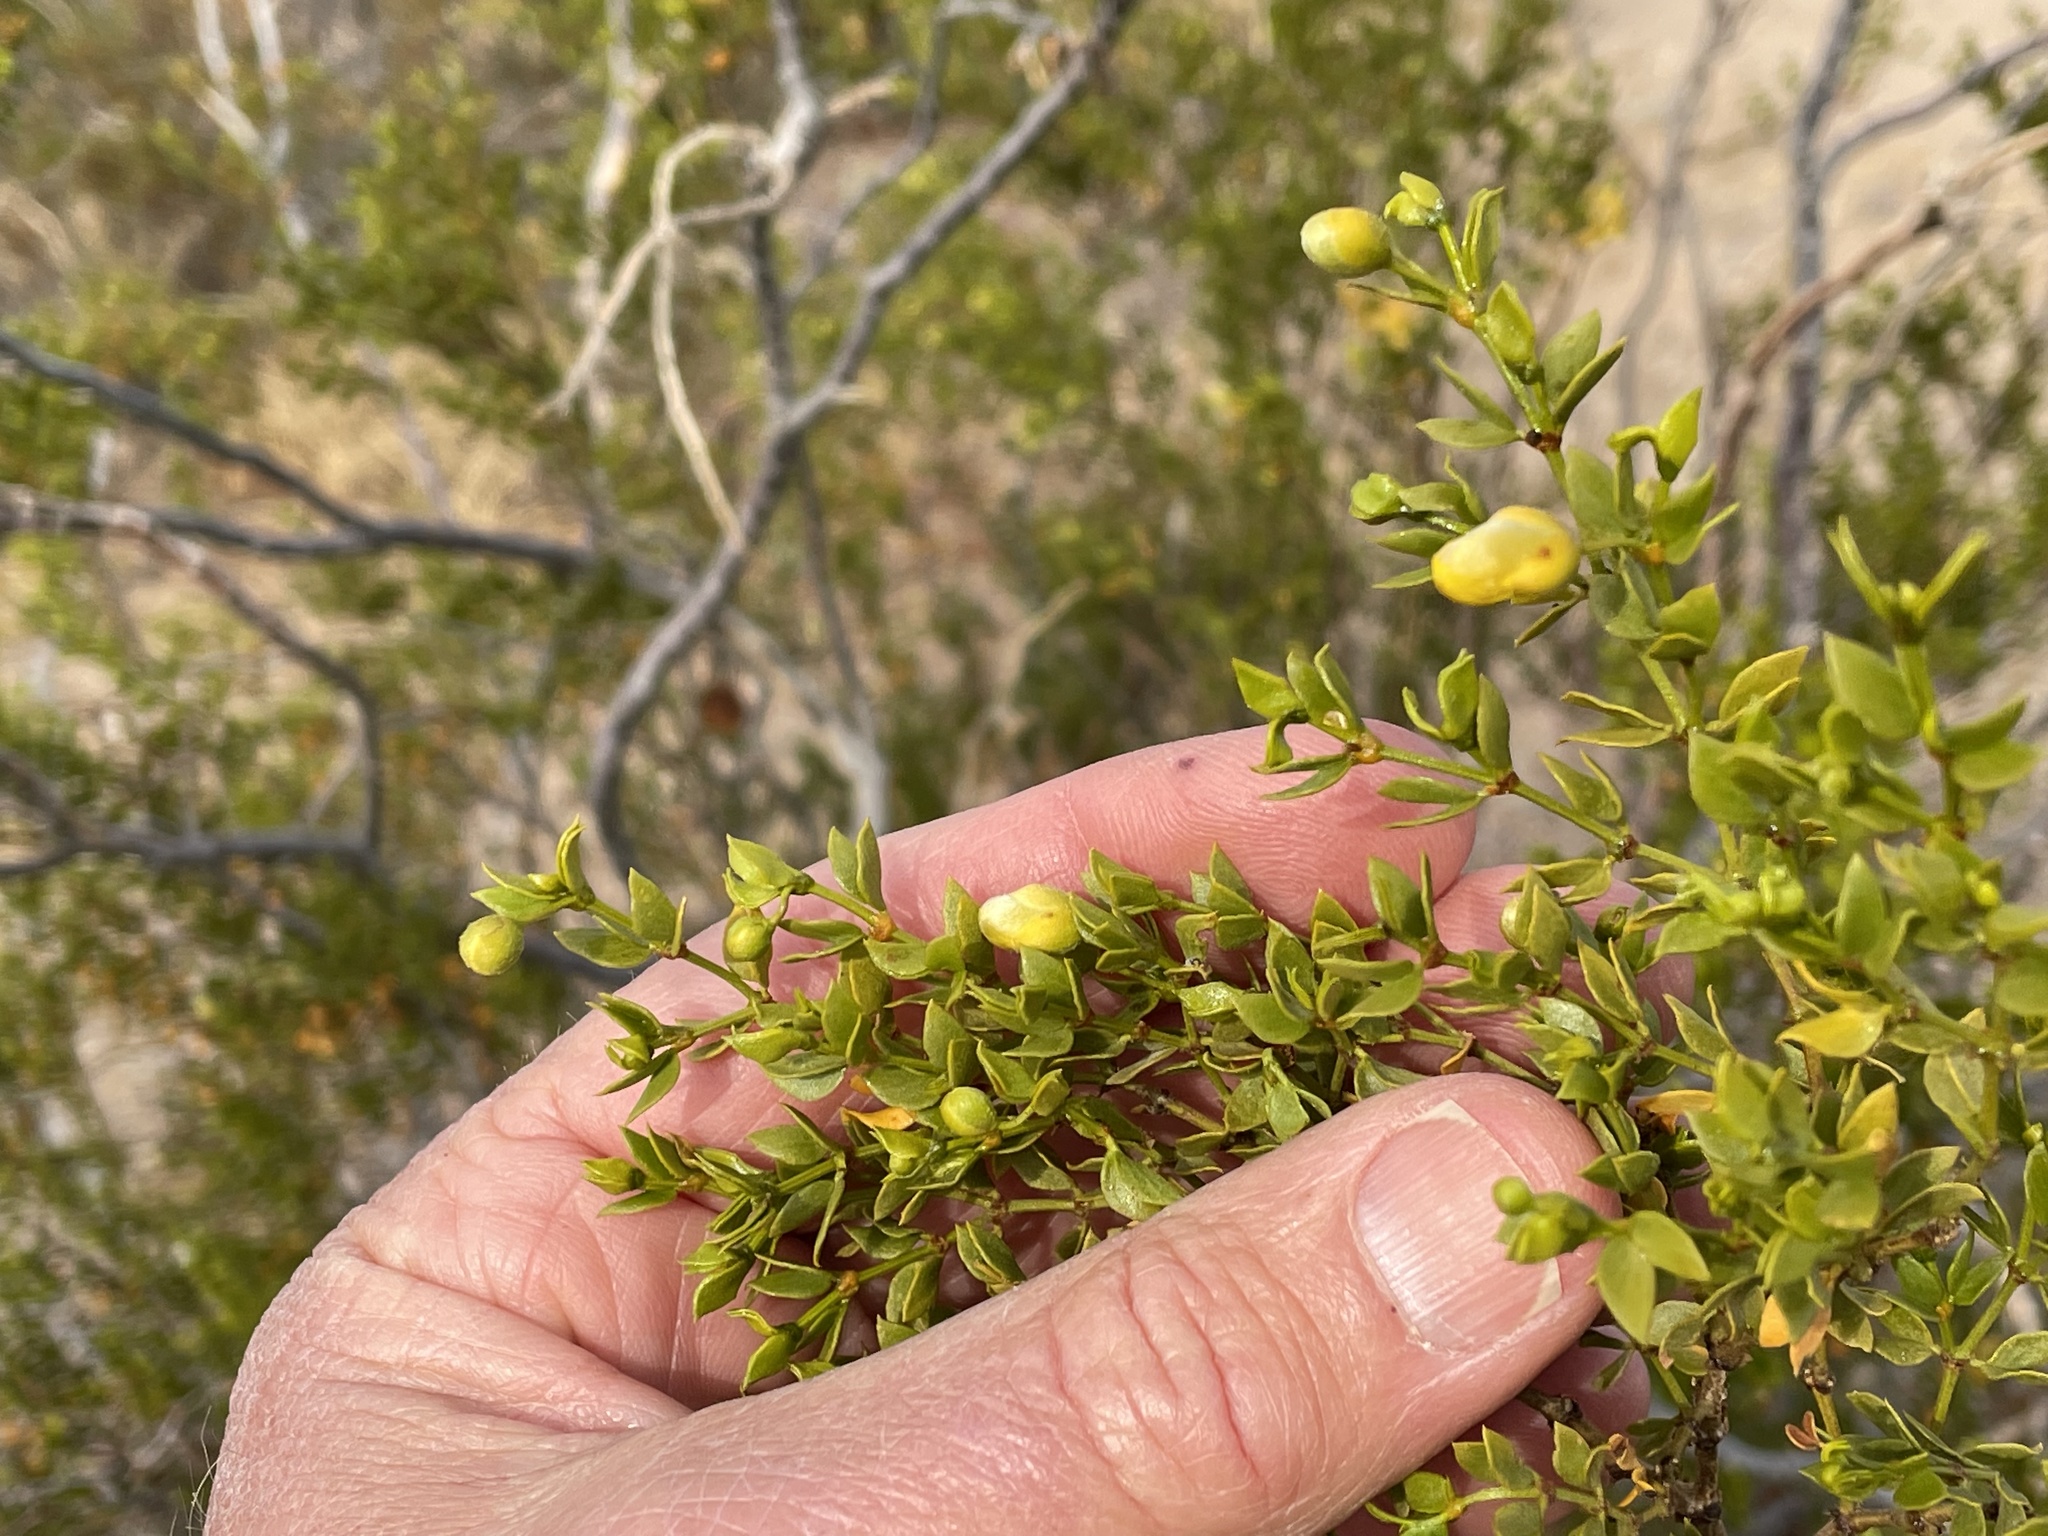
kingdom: Plantae
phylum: Tracheophyta
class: Magnoliopsida
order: Zygophyllales
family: Zygophyllaceae
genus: Larrea
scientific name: Larrea tridentata
